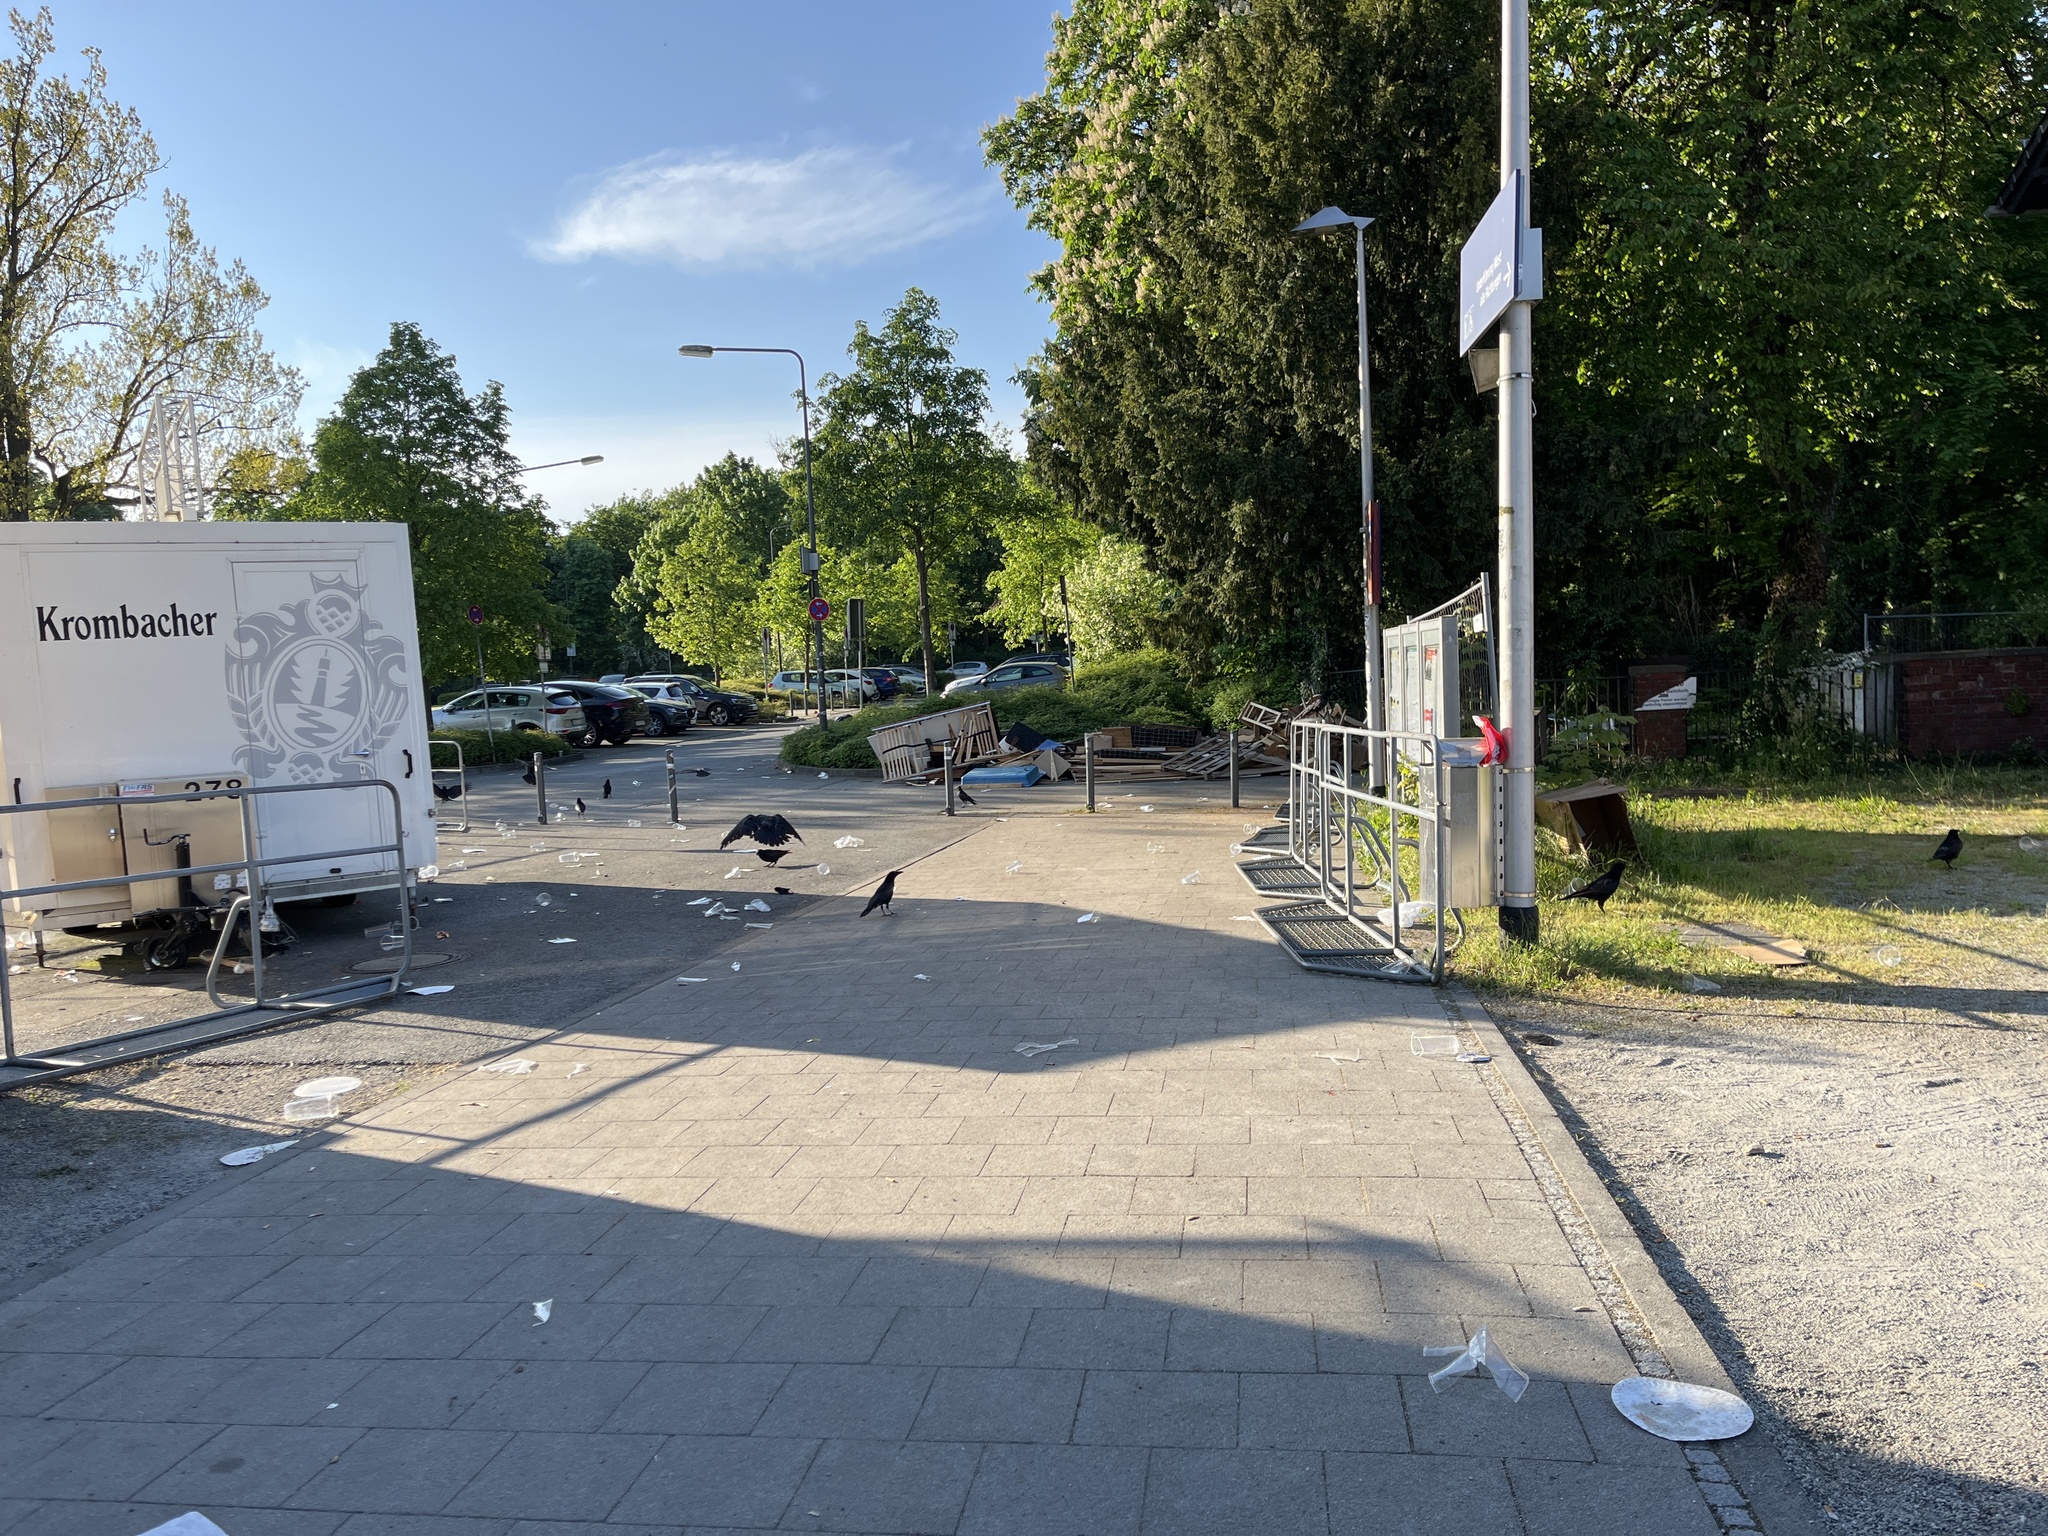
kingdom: Animalia
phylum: Chordata
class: Aves
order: Passeriformes
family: Corvidae
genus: Corvus
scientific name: Corvus corone
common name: Carrion crow
